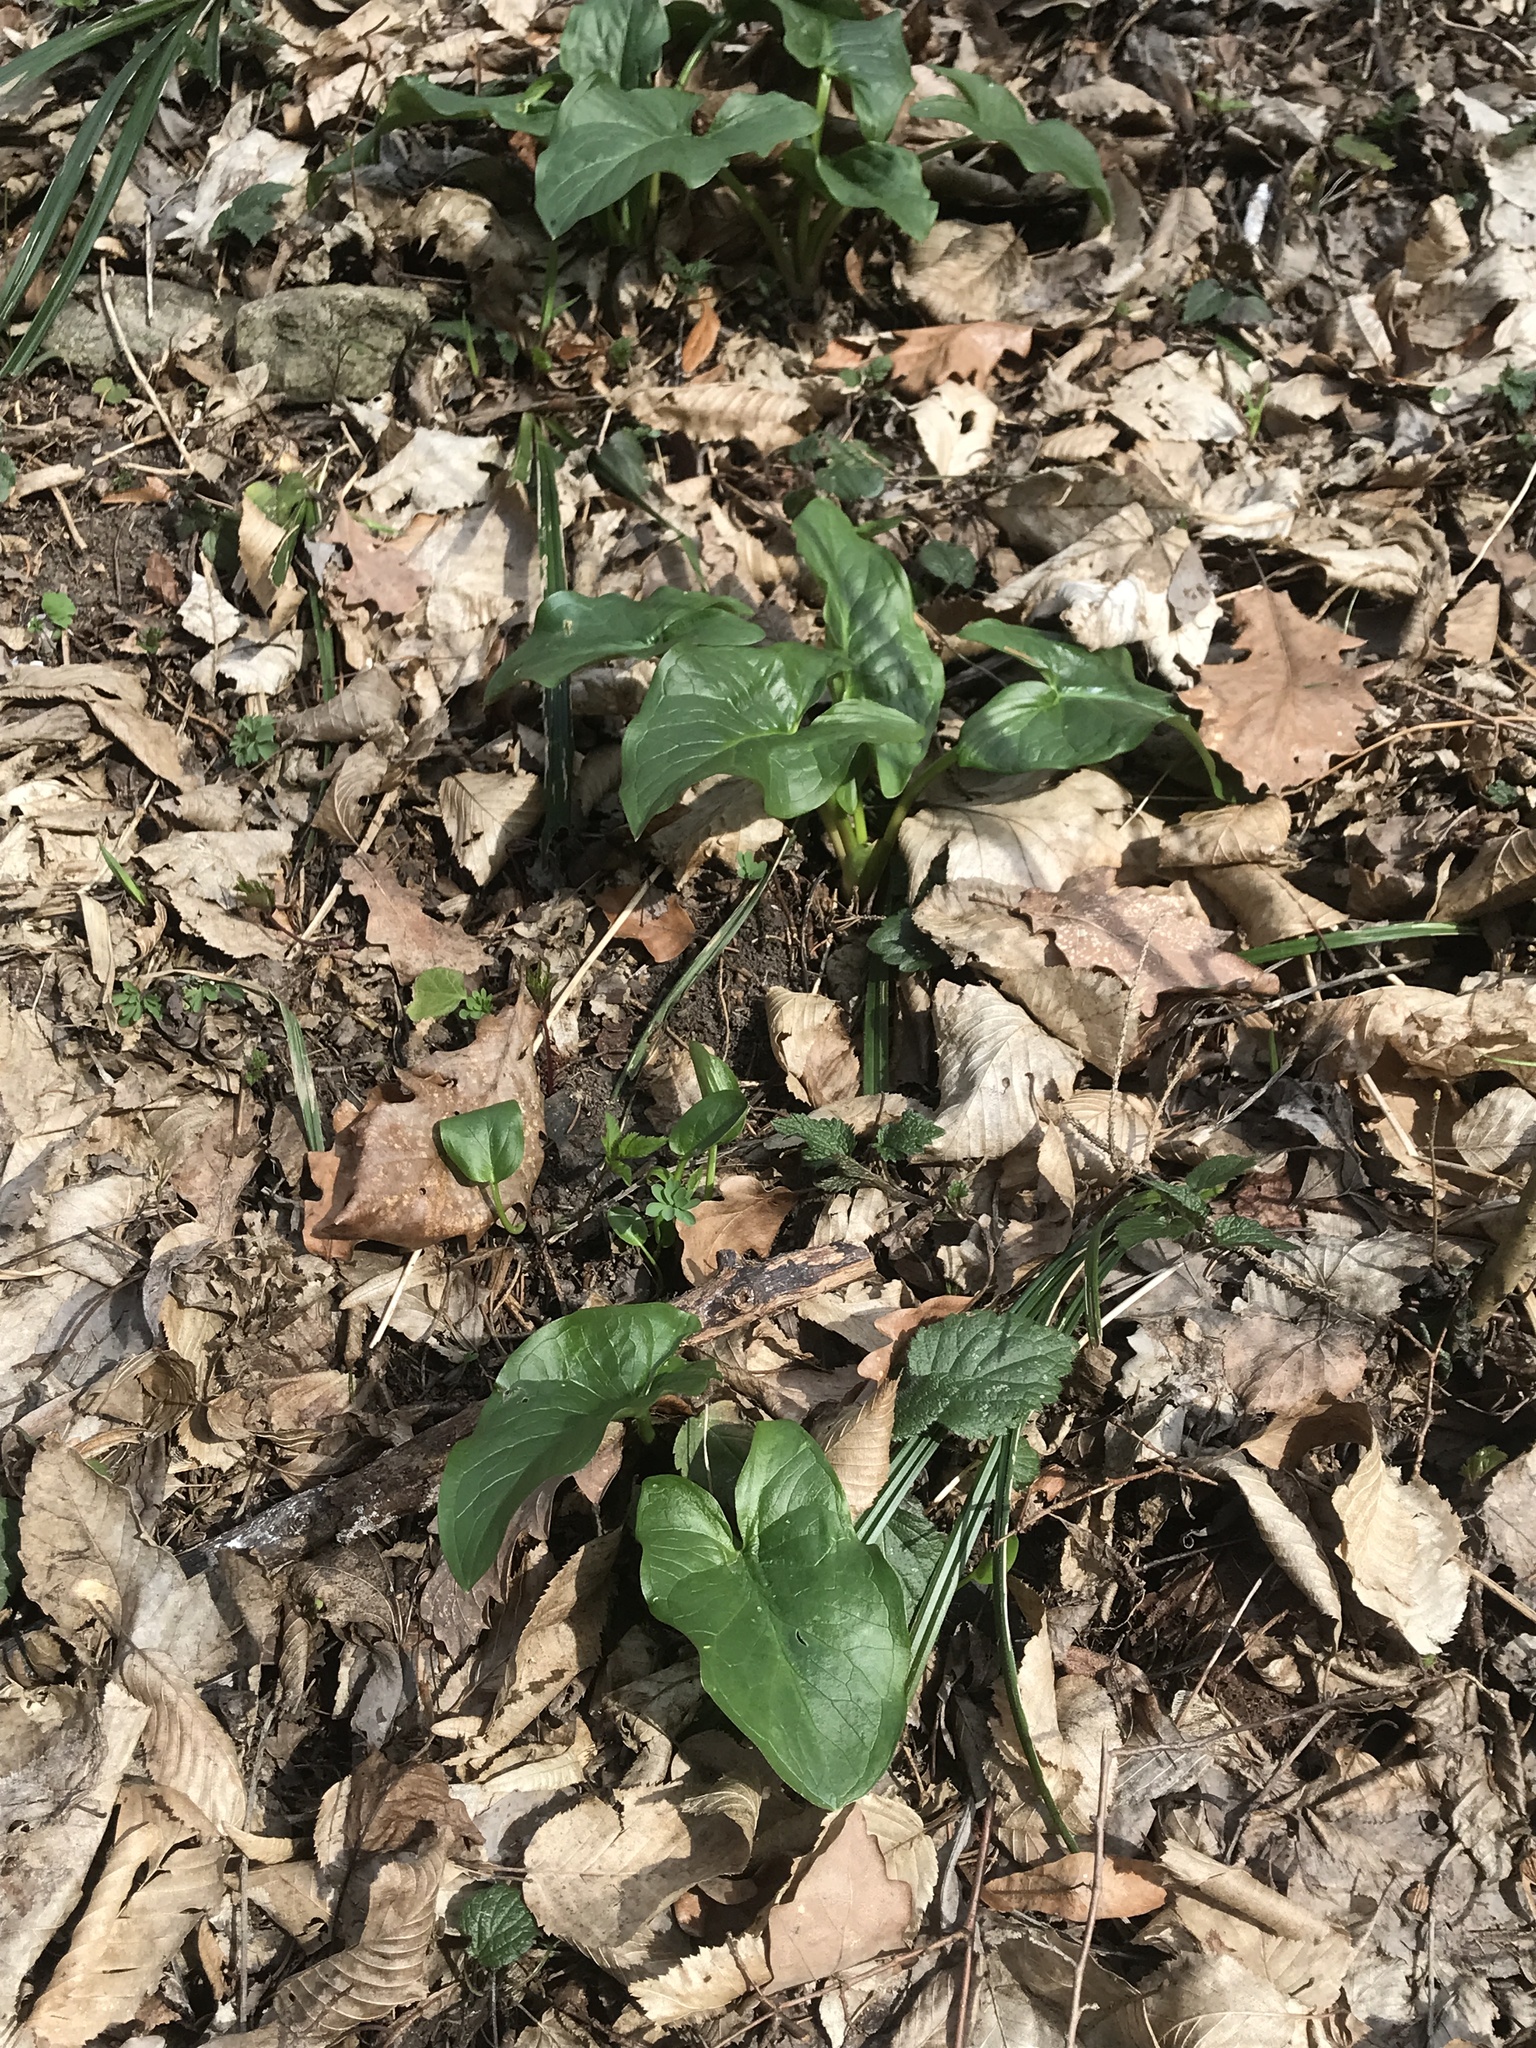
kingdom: Plantae
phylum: Tracheophyta
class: Liliopsida
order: Alismatales
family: Araceae
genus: Arum
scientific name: Arum cylindraceum
